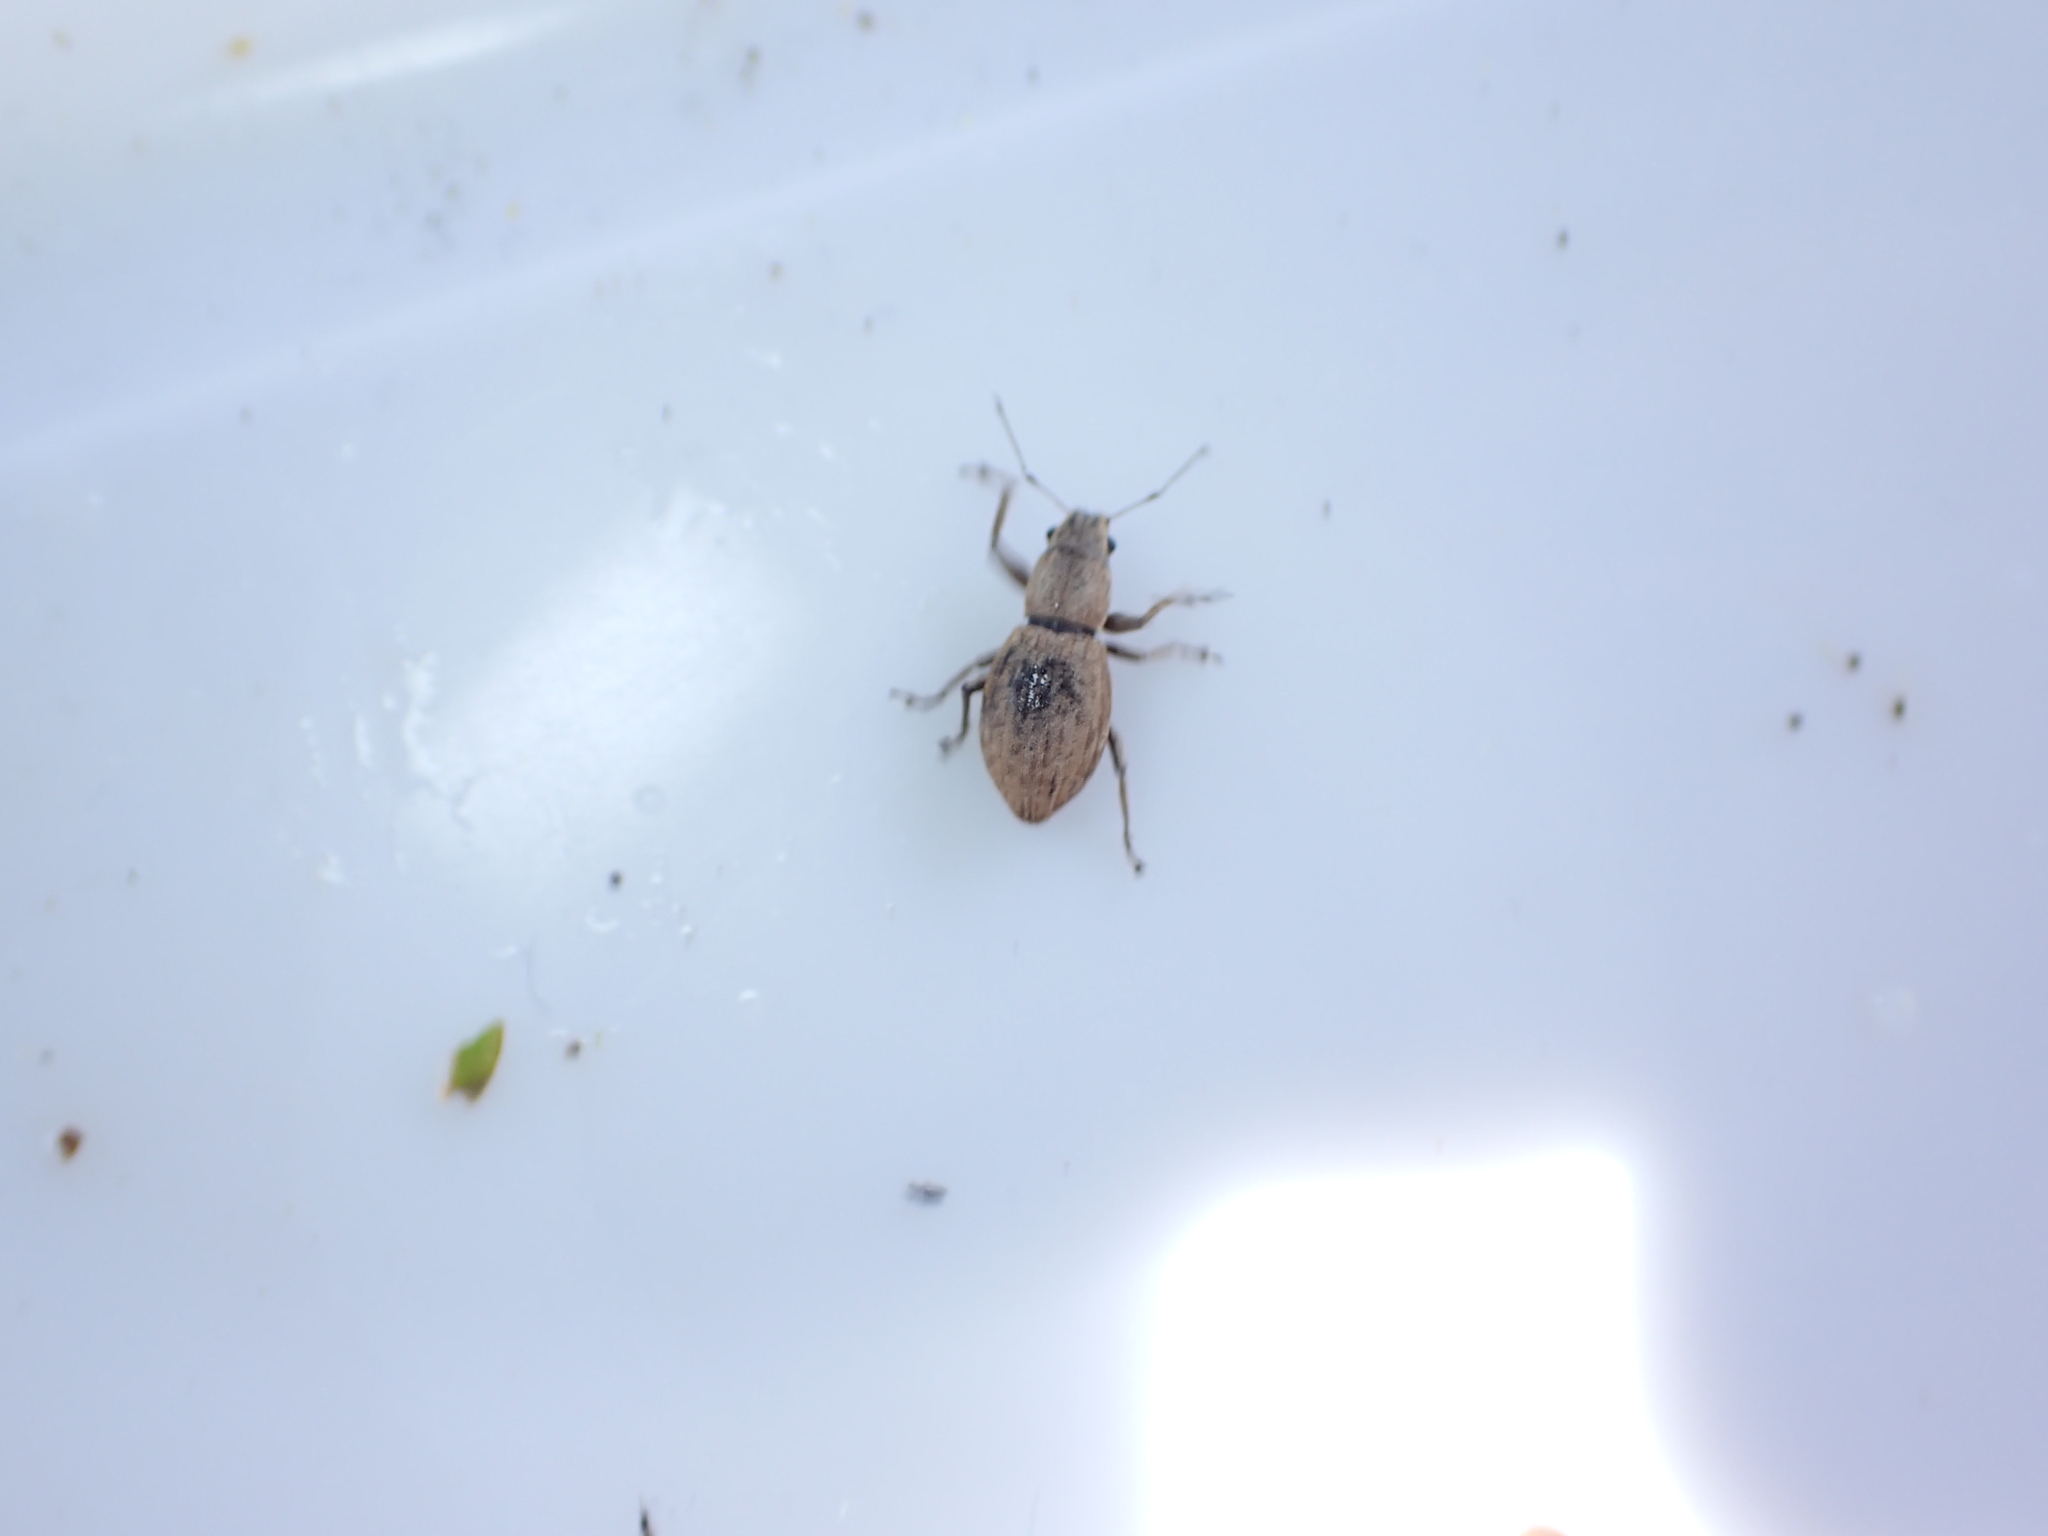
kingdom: Animalia
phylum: Arthropoda
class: Insecta
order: Coleoptera
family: Curculionidae
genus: Naupactus
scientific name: Naupactus cervinus
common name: Fuller rose beetle
